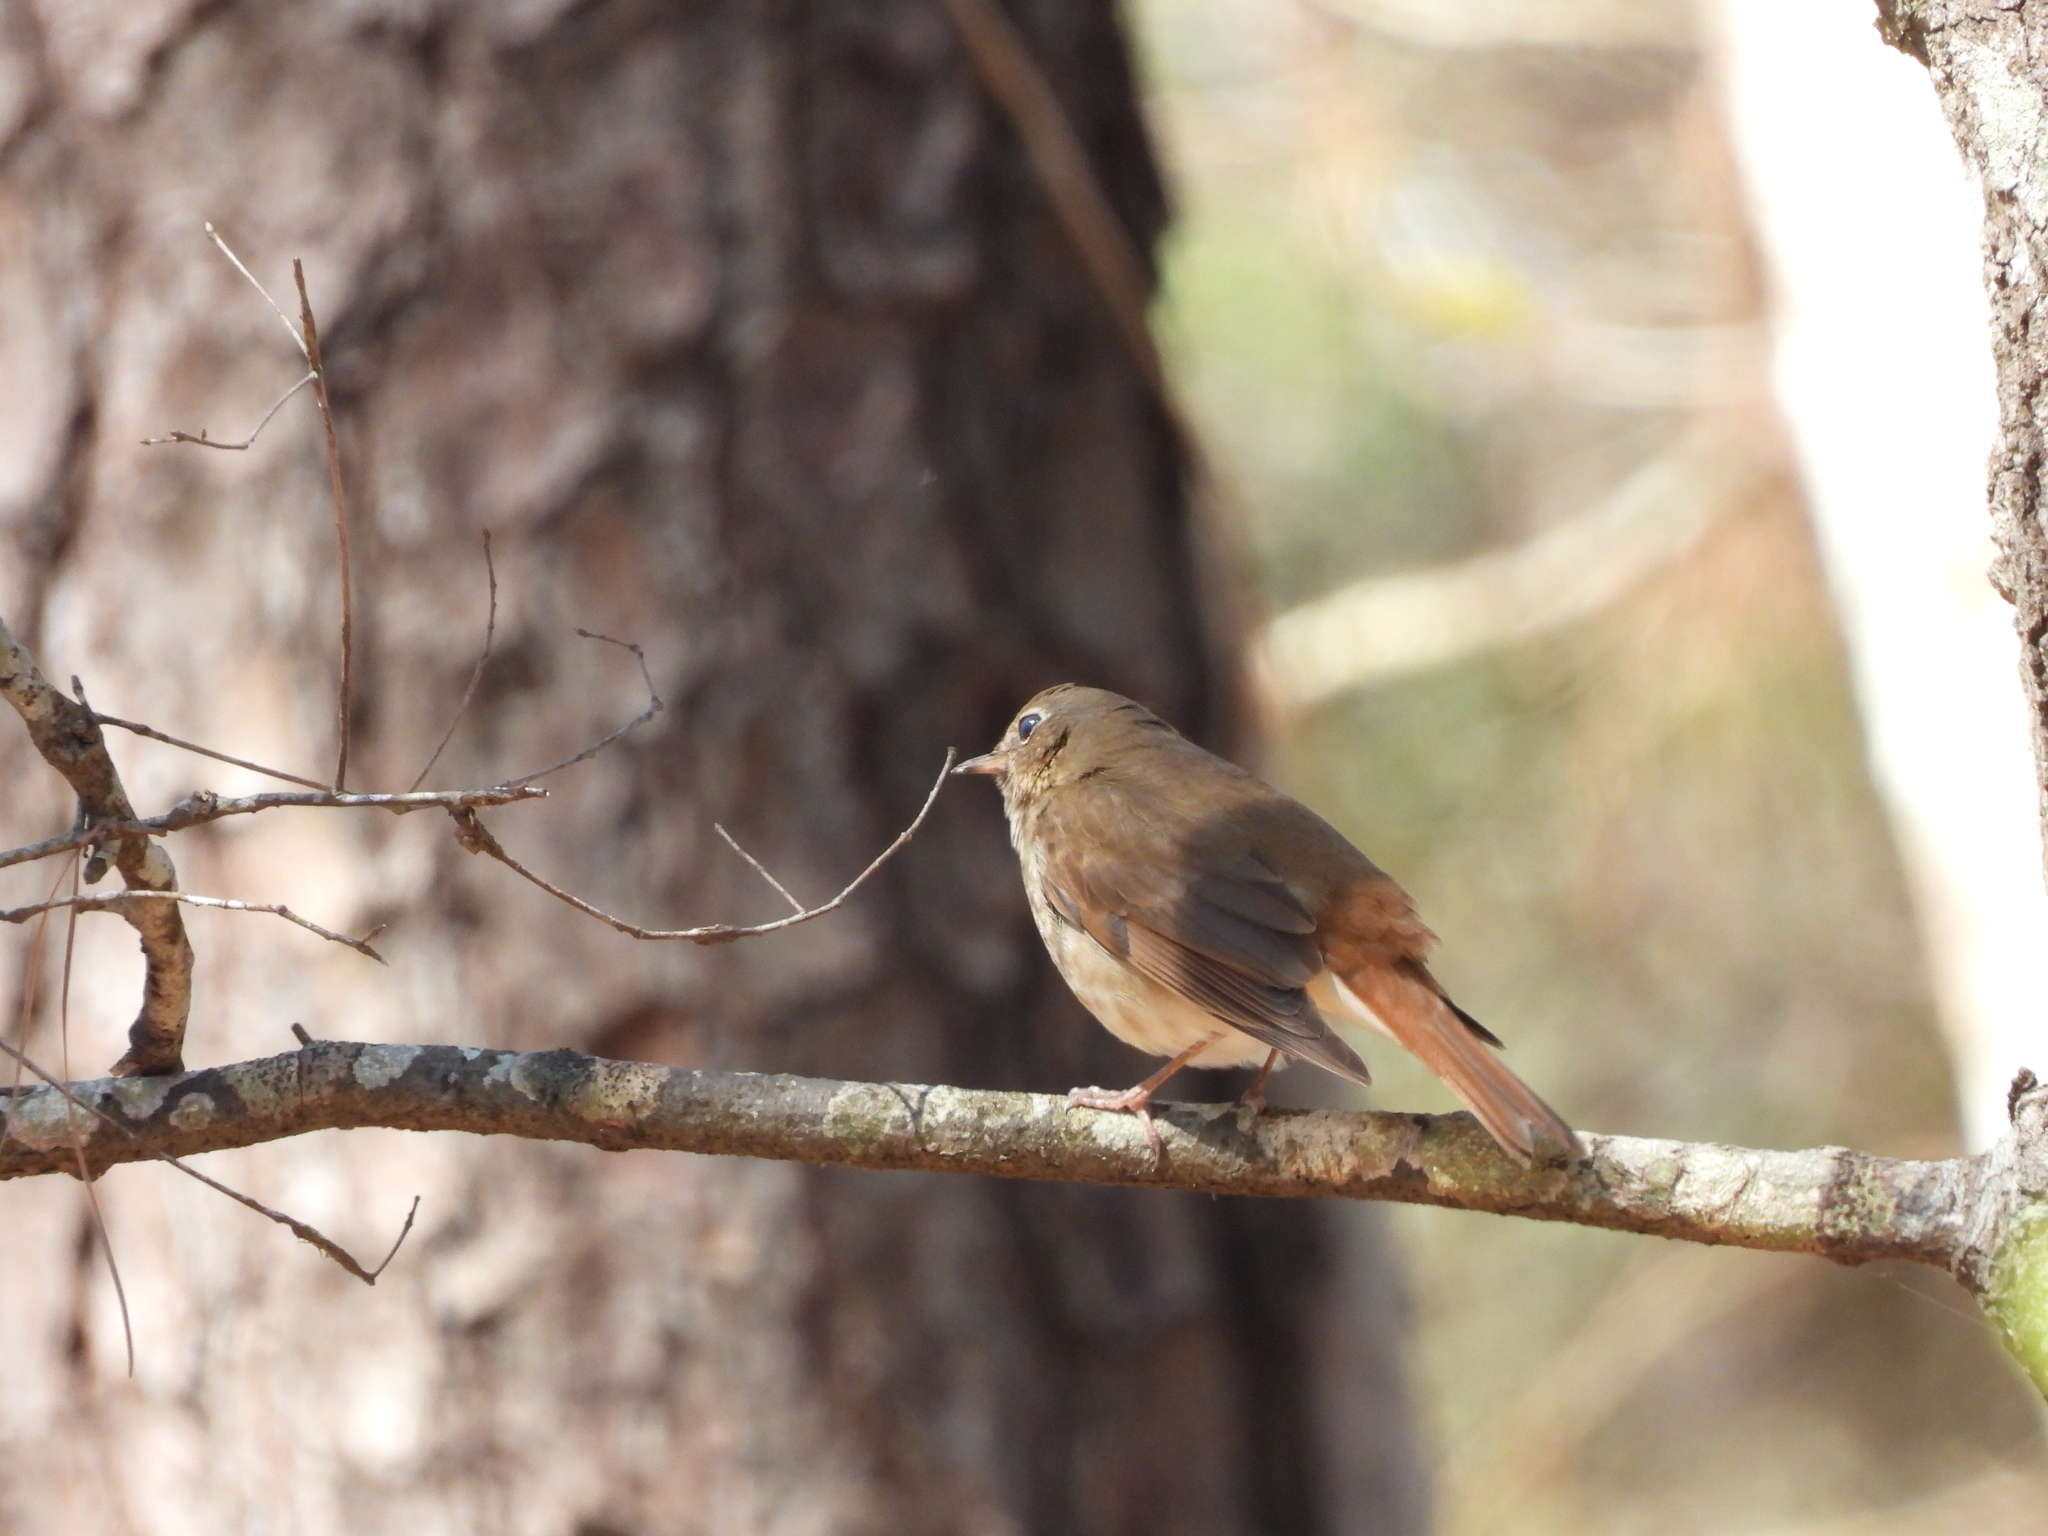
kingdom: Animalia
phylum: Chordata
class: Aves
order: Passeriformes
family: Turdidae
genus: Catharus
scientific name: Catharus guttatus
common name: Hermit thrush
